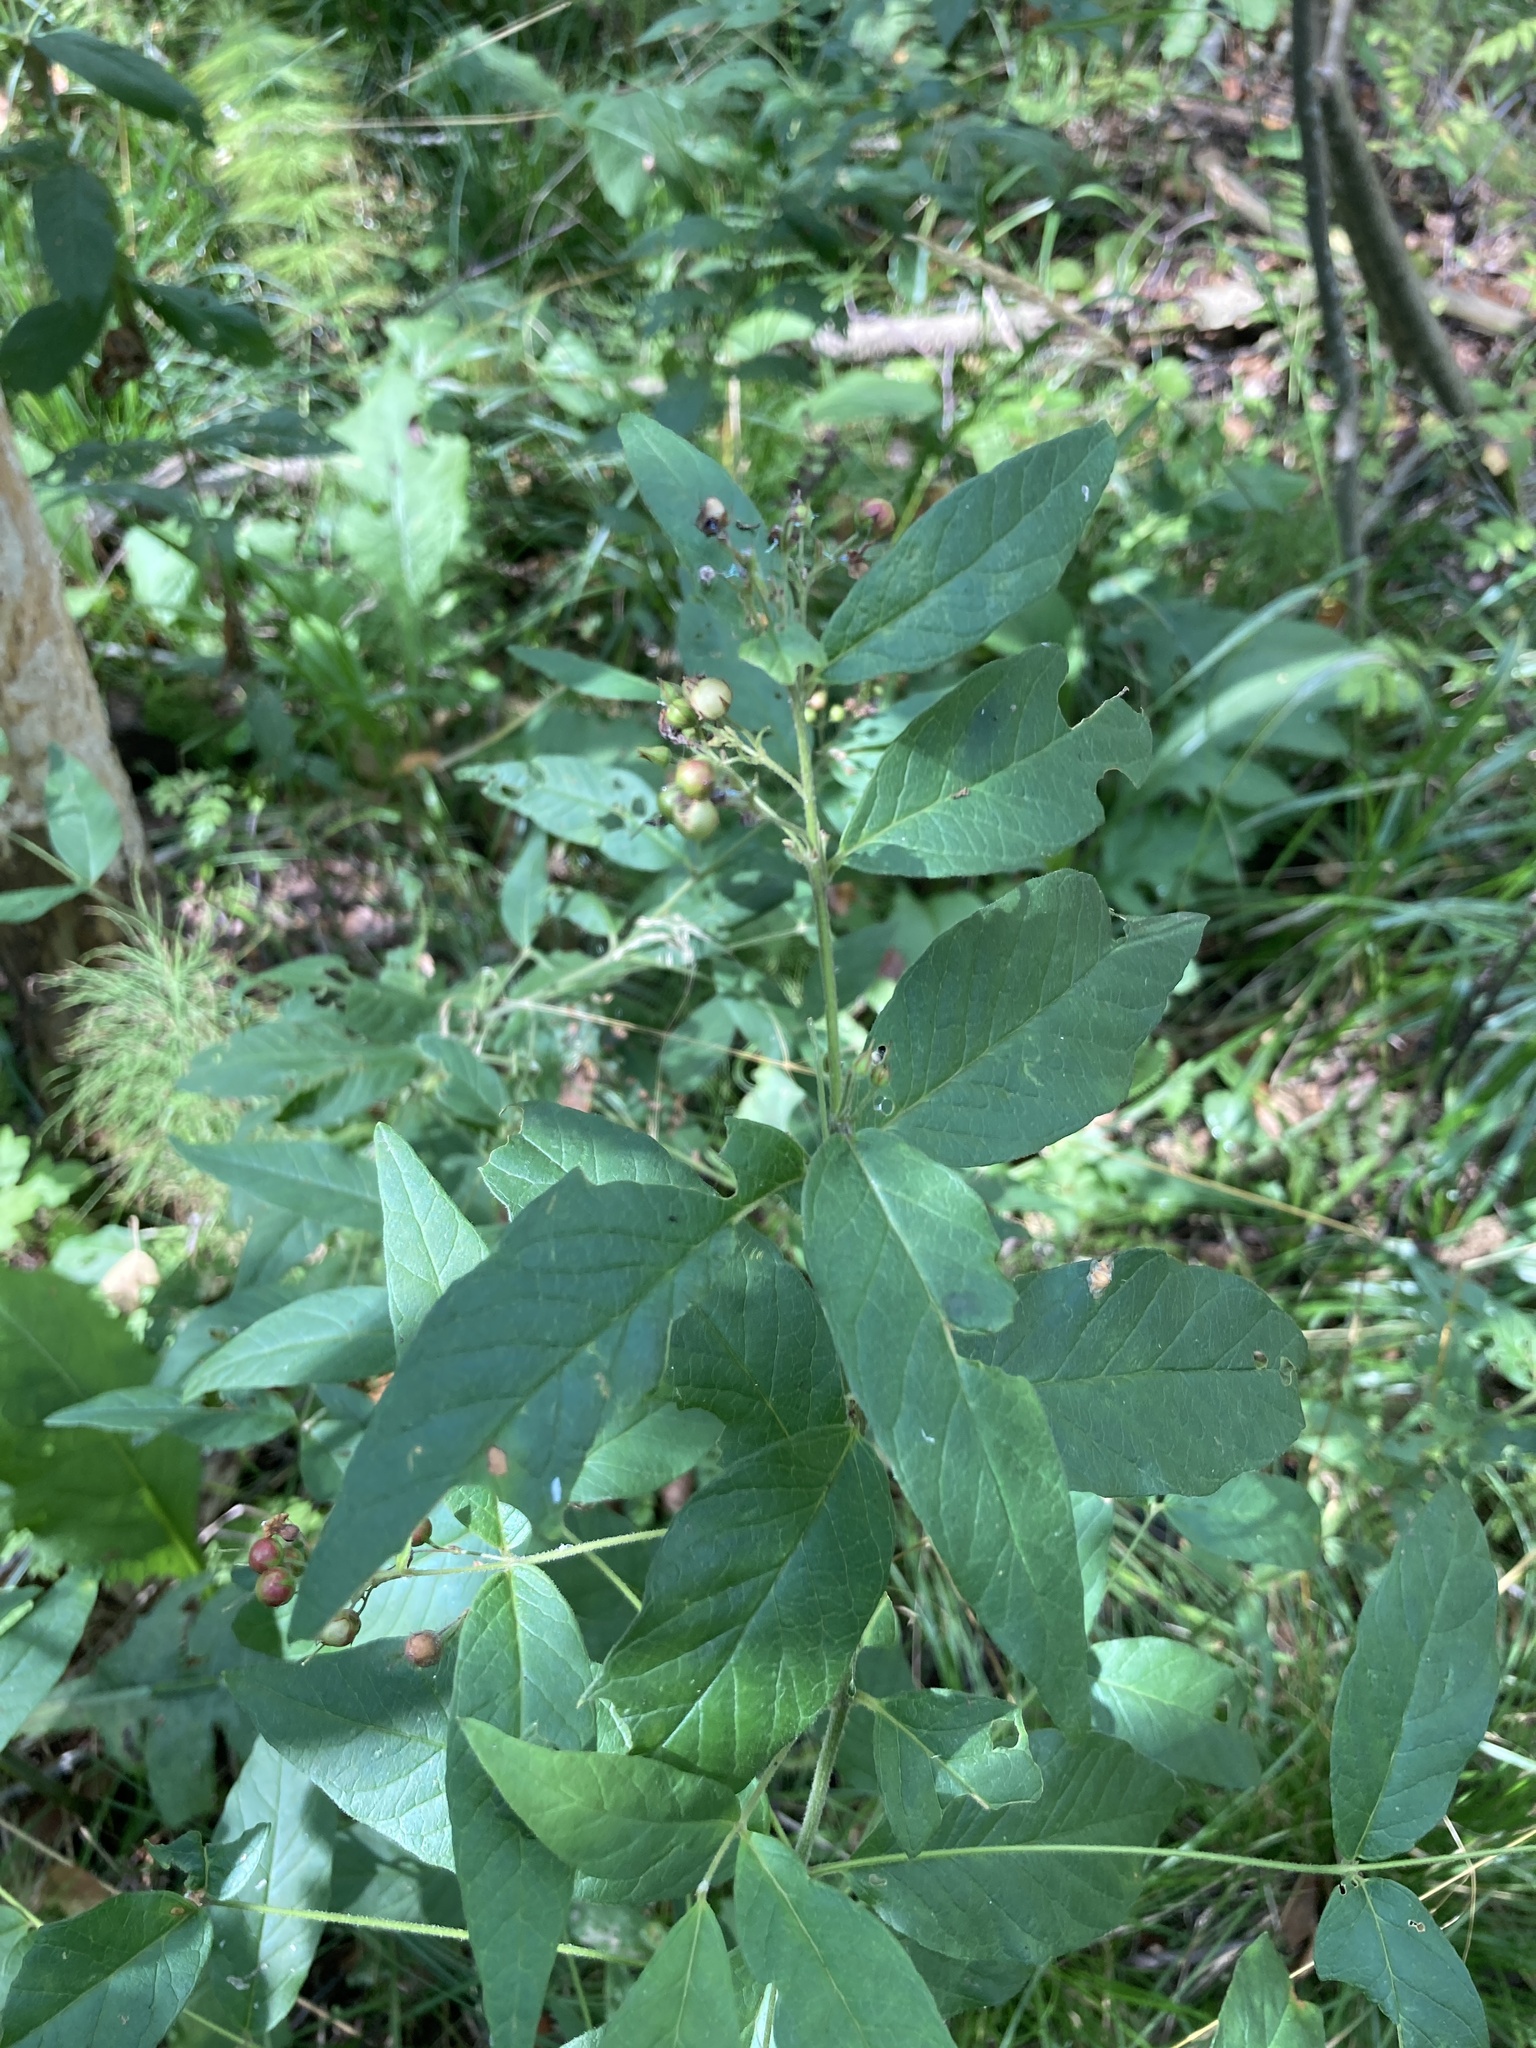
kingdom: Plantae
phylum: Tracheophyta
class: Magnoliopsida
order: Ericales
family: Primulaceae
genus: Lysimachia
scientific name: Lysimachia vulgaris
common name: Yellow loosestrife
